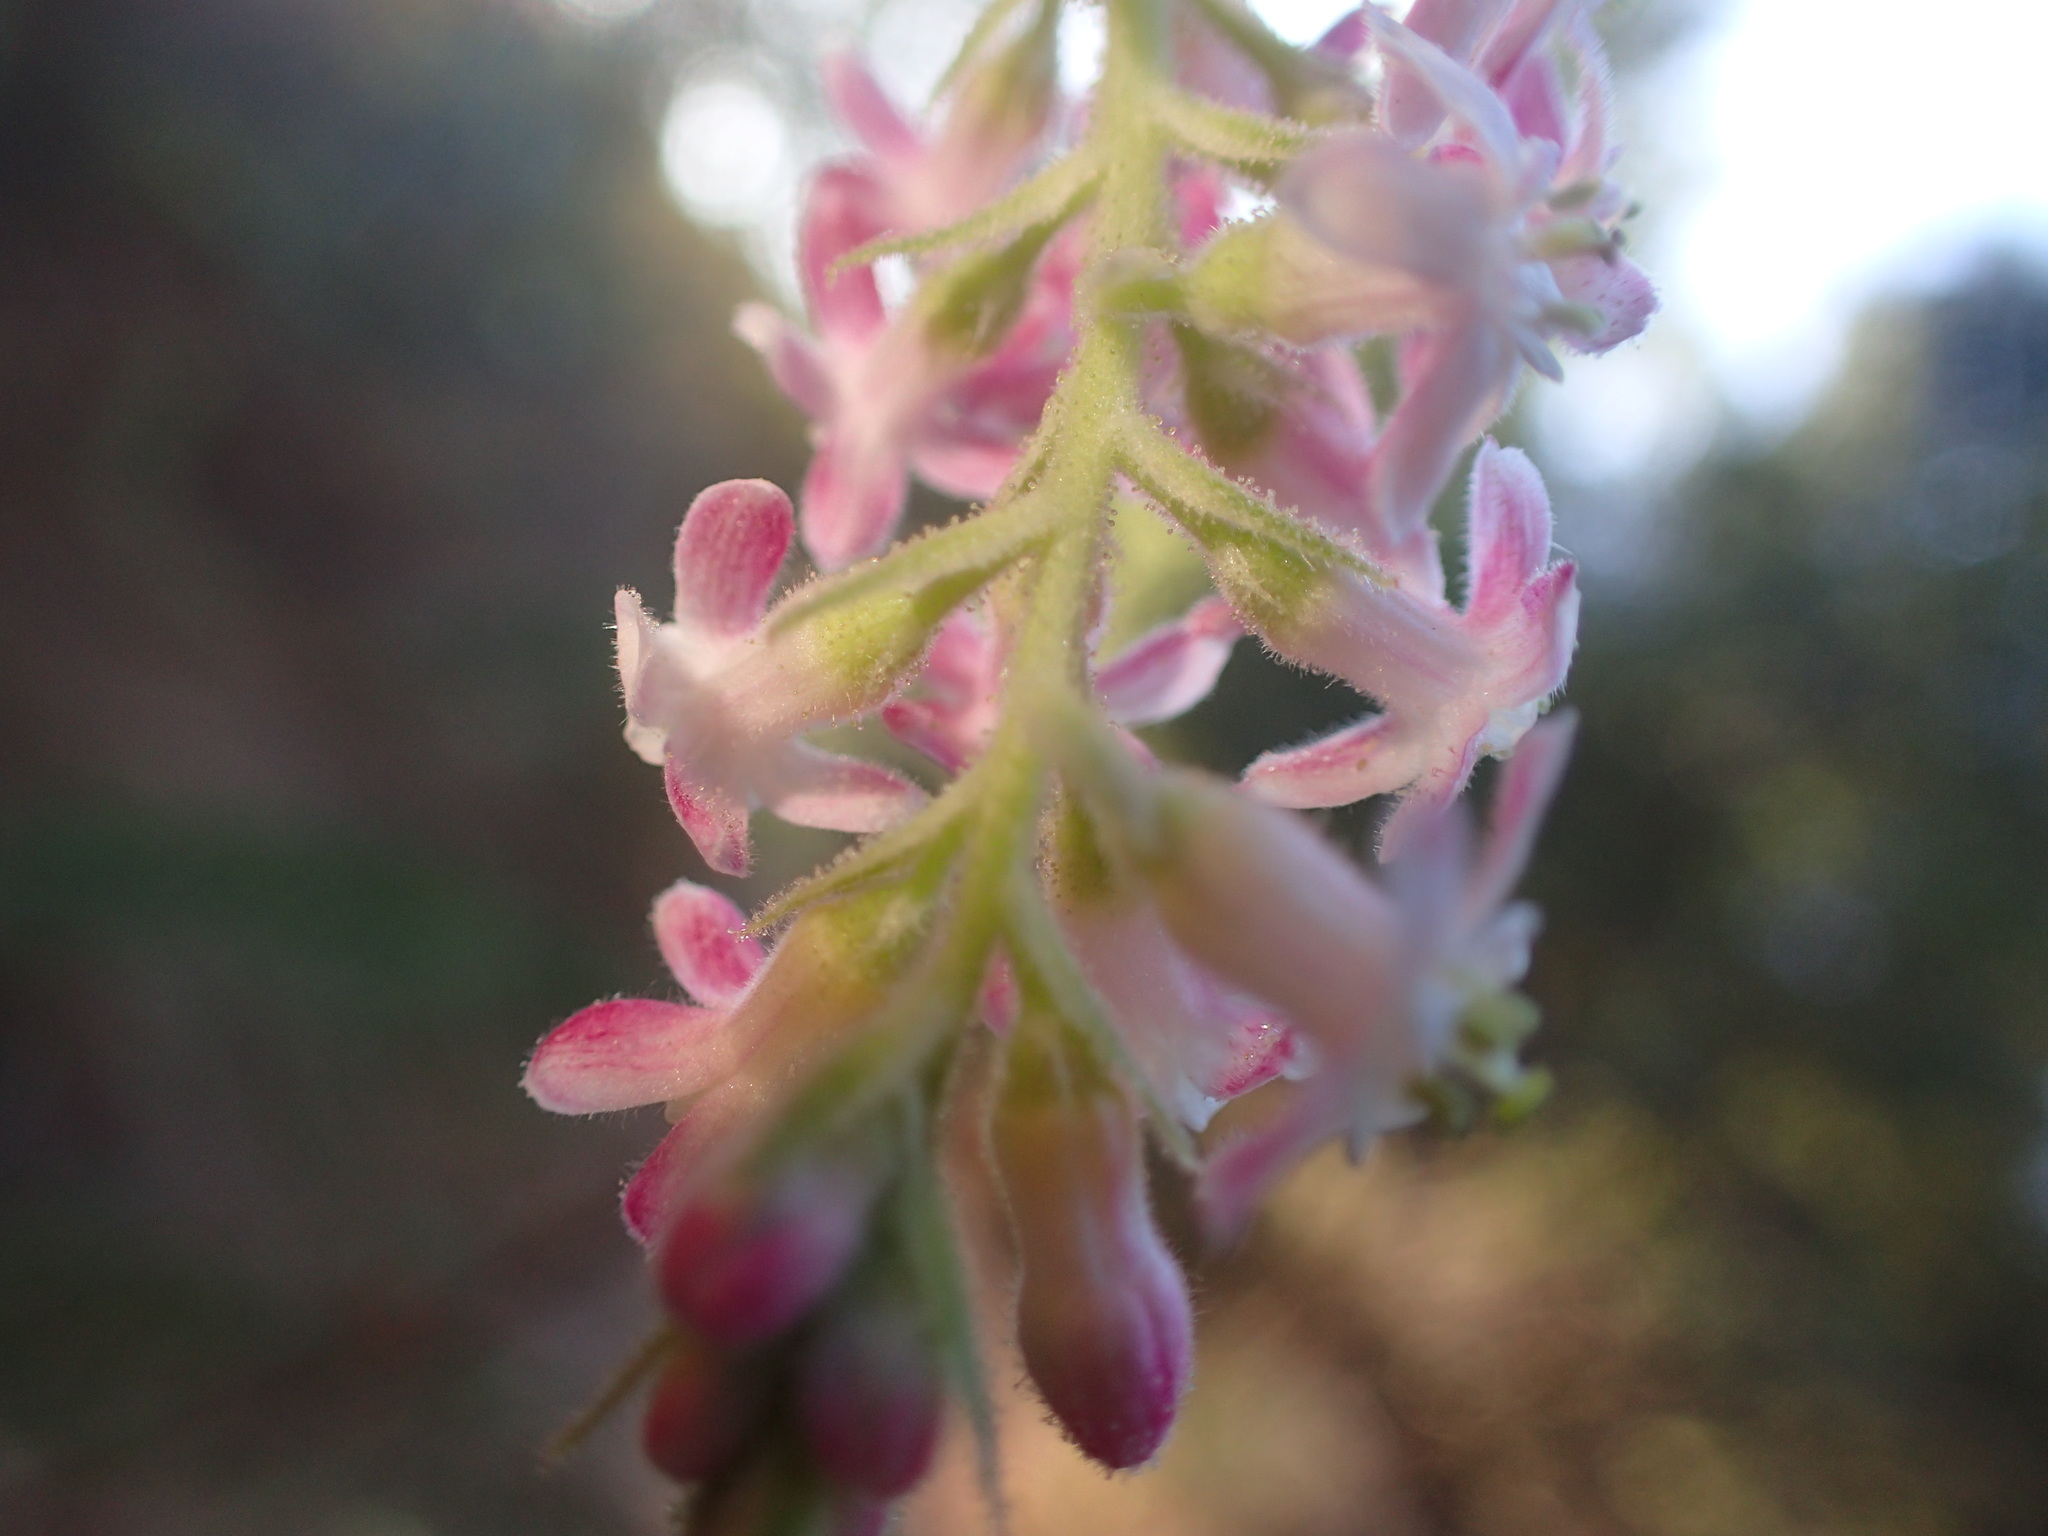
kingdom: Plantae
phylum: Tracheophyta
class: Magnoliopsida
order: Saxifragales
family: Grossulariaceae
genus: Ribes
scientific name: Ribes malvaceum
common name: Chaparral currant
